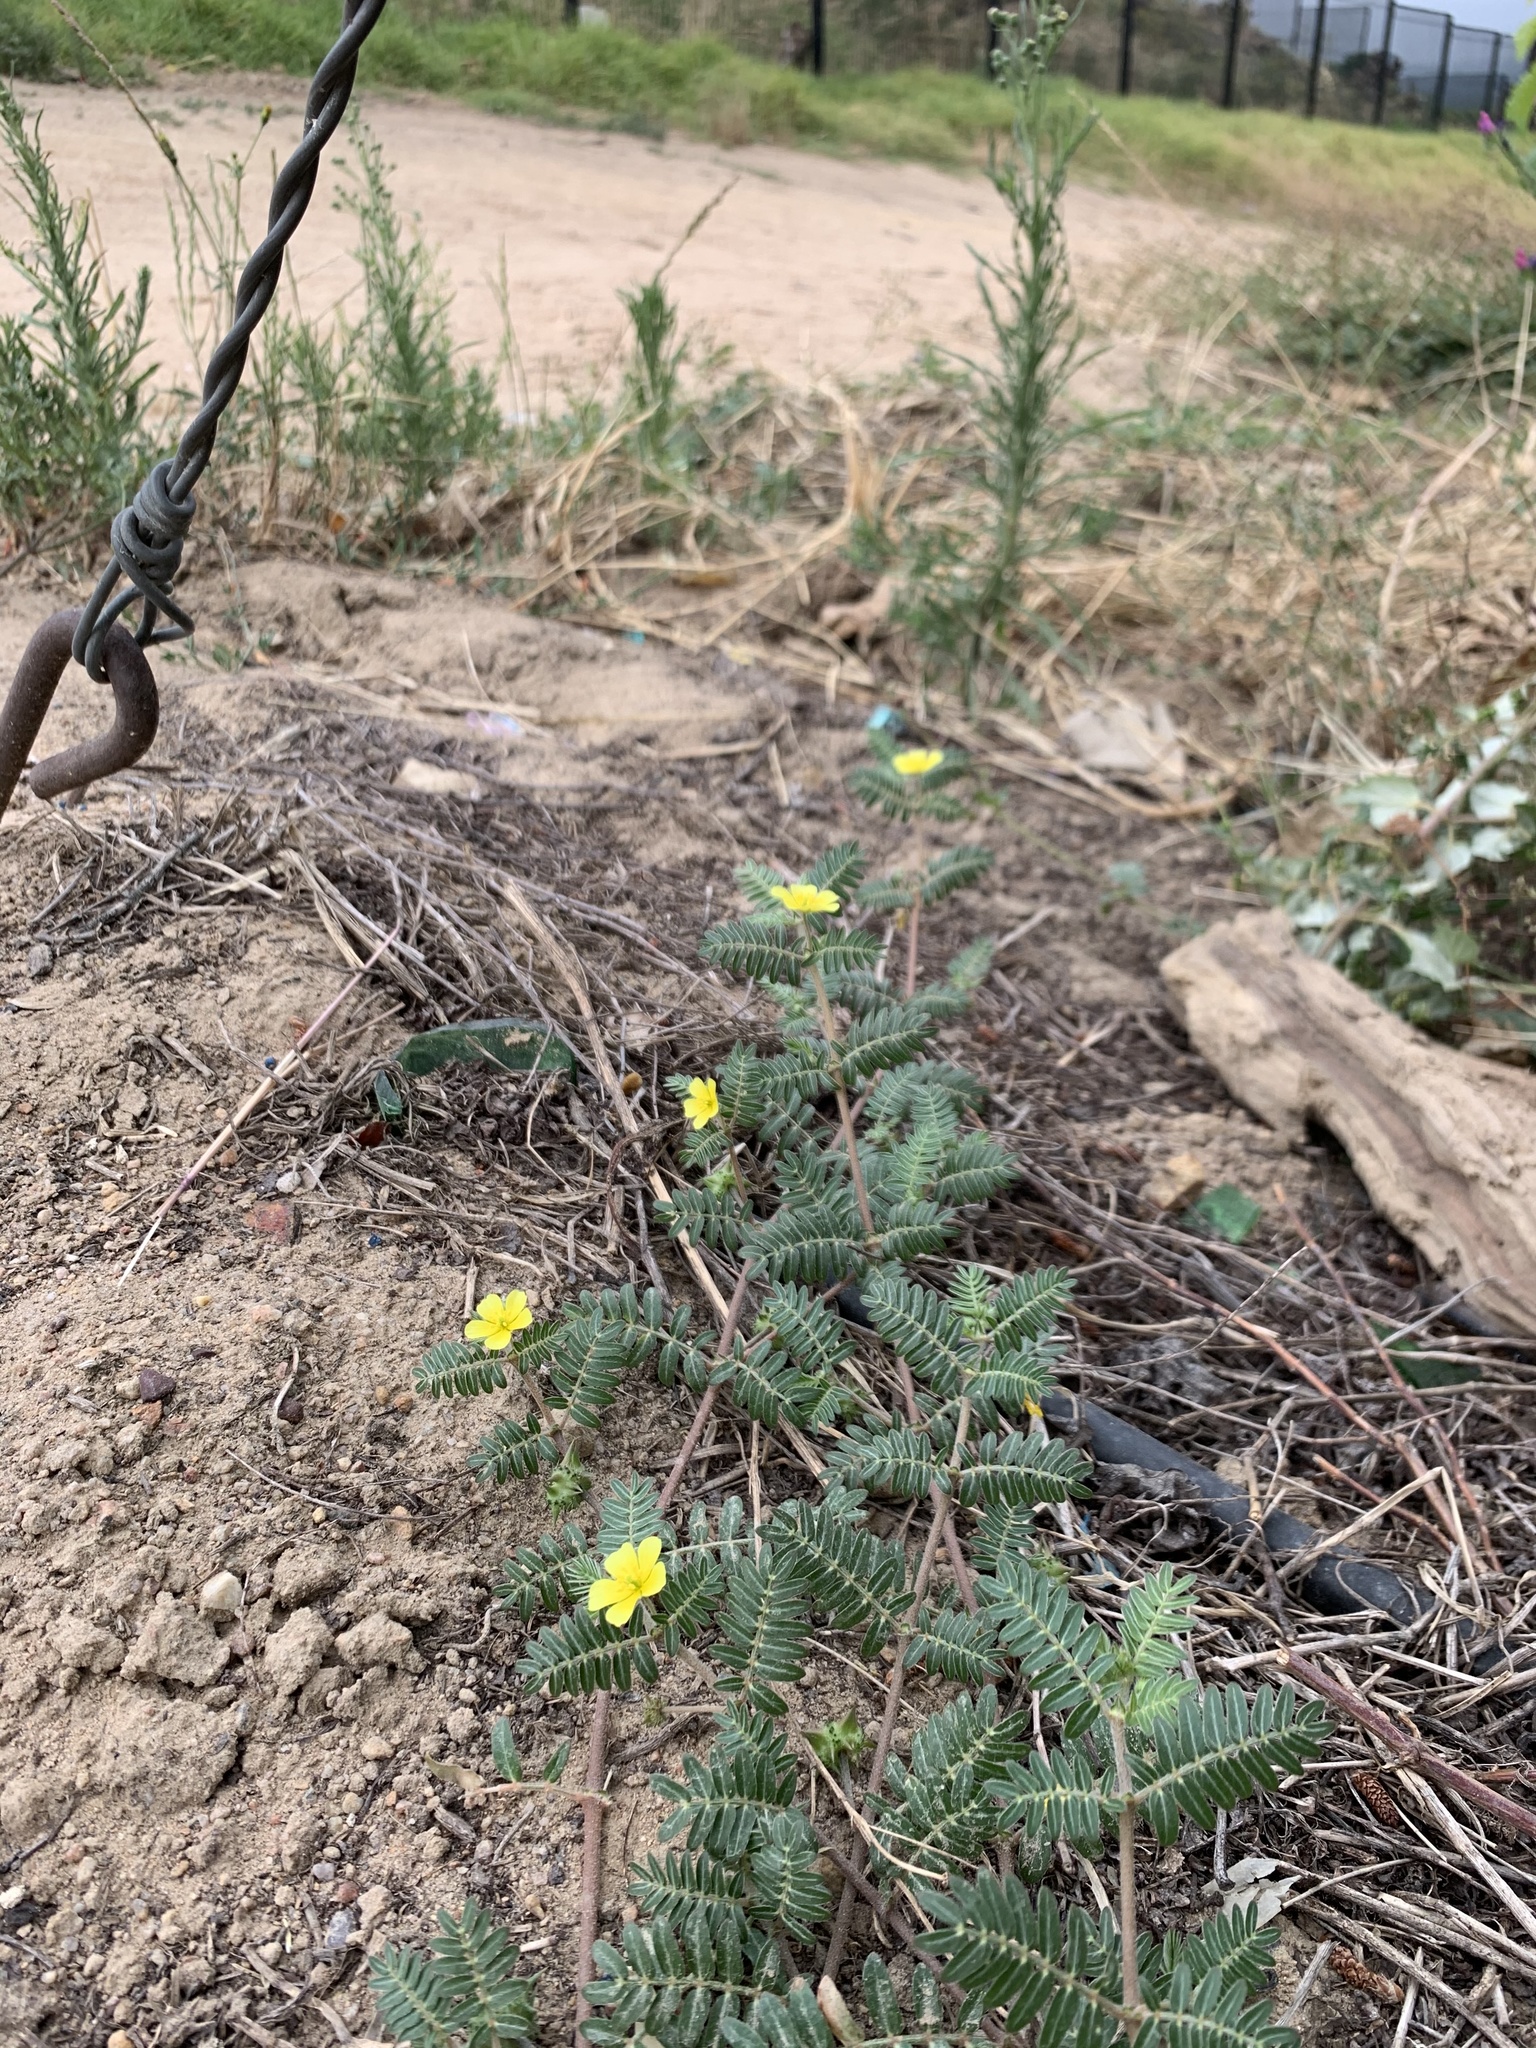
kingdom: Plantae
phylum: Tracheophyta
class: Magnoliopsida
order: Zygophyllales
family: Zygophyllaceae
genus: Tribulus
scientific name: Tribulus terrestris
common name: Puncturevine
